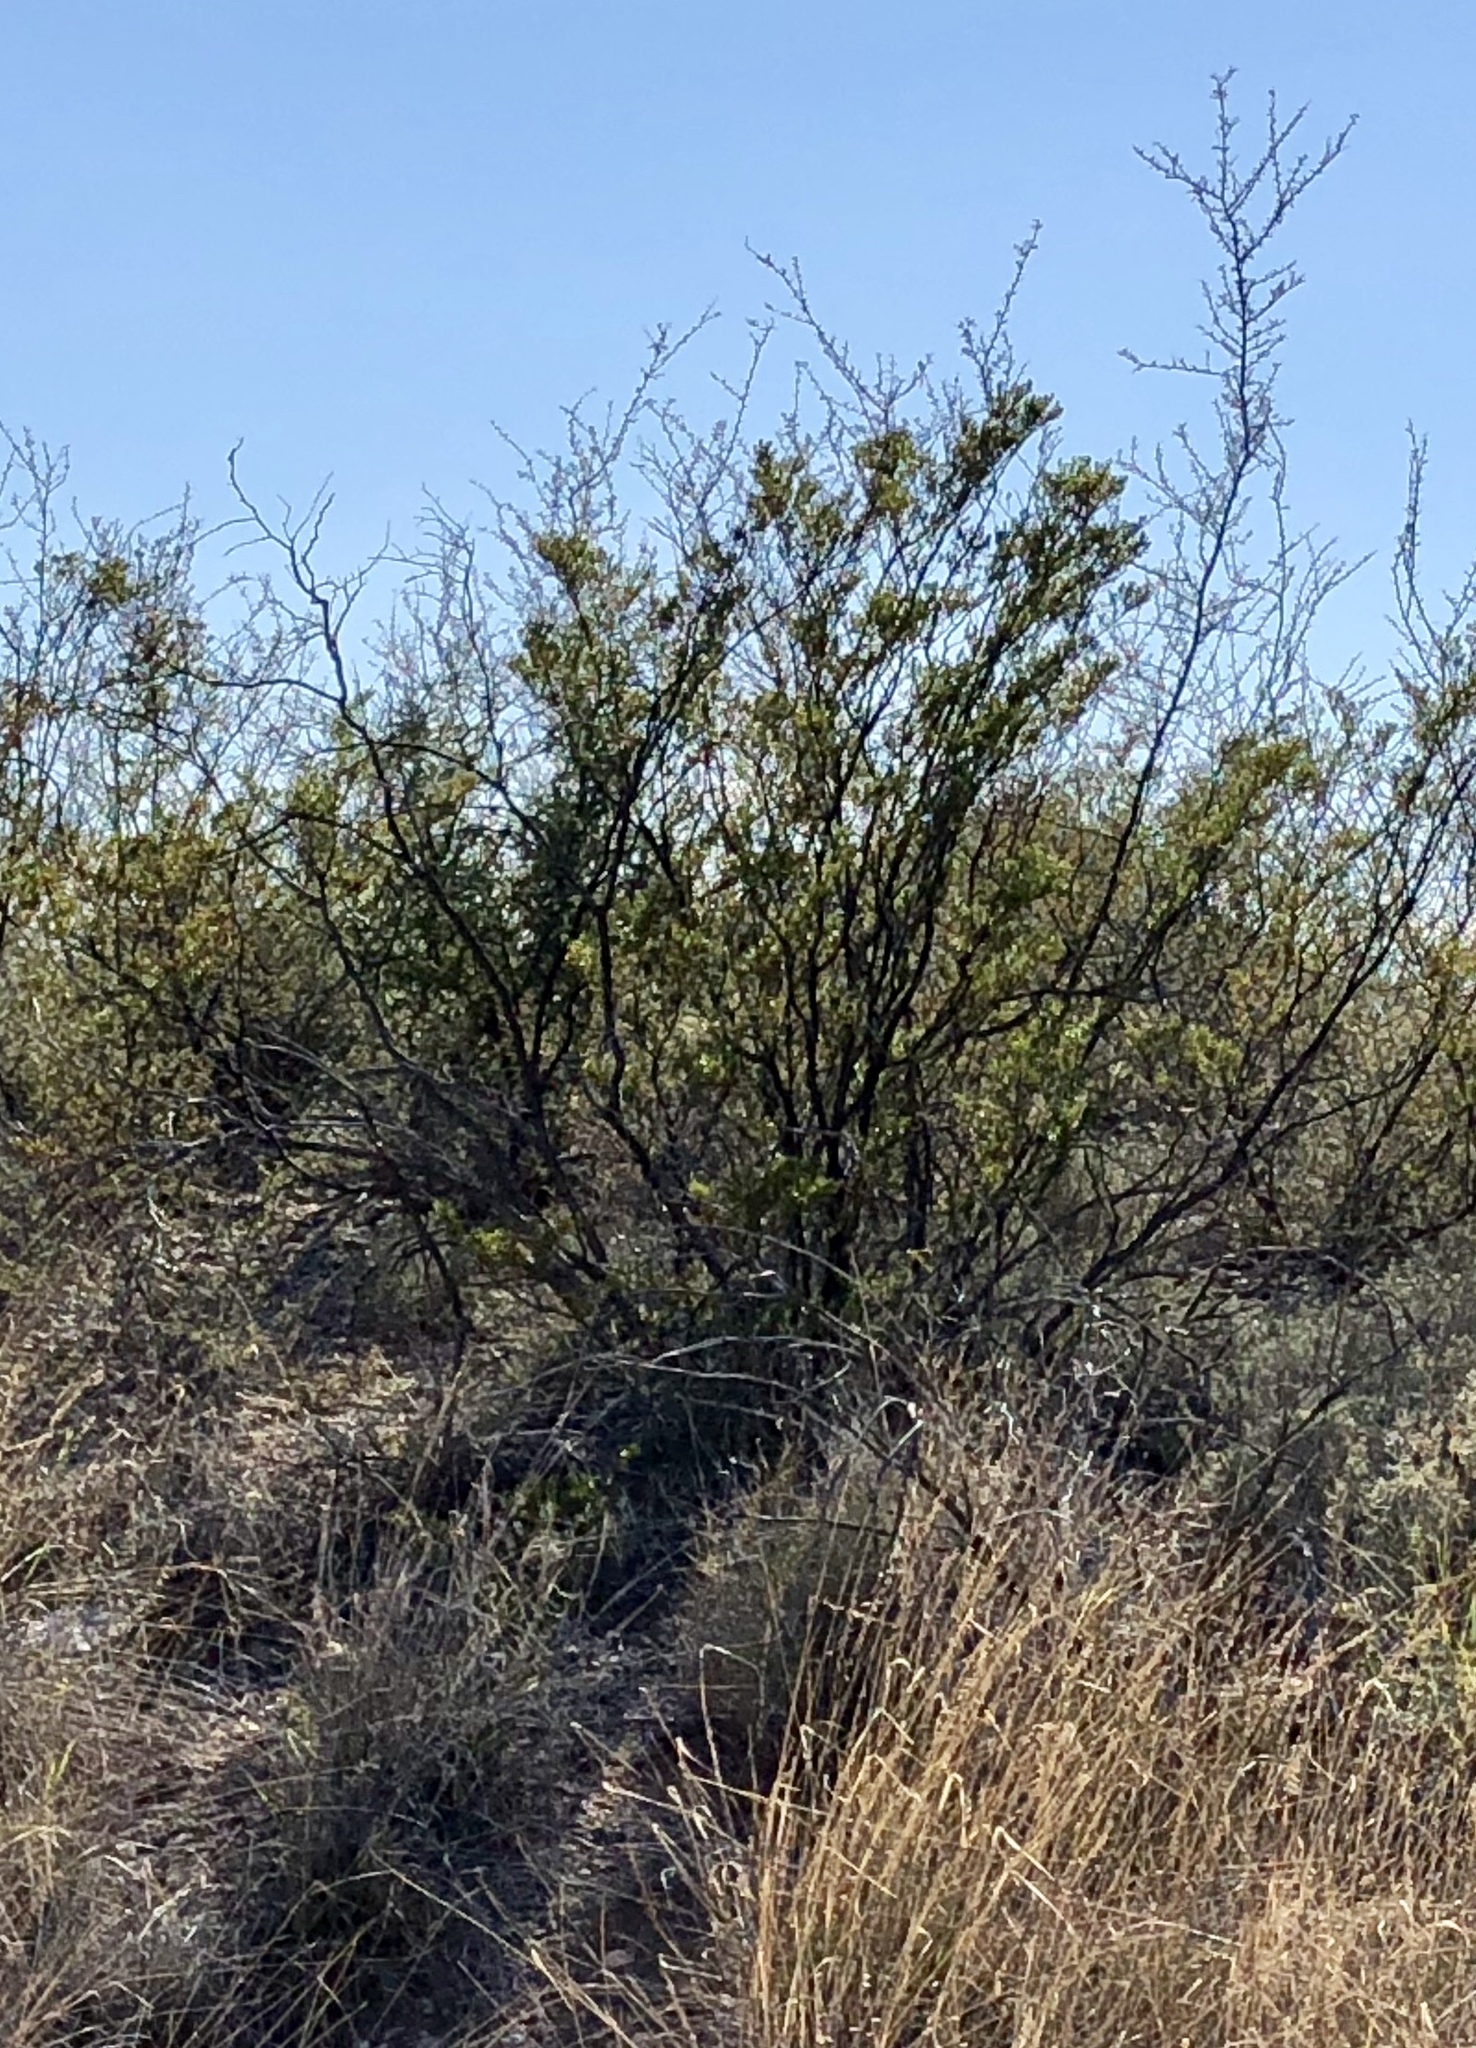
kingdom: Plantae
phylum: Tracheophyta
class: Magnoliopsida
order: Zygophyllales
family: Zygophyllaceae
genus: Larrea
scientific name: Larrea tridentata
